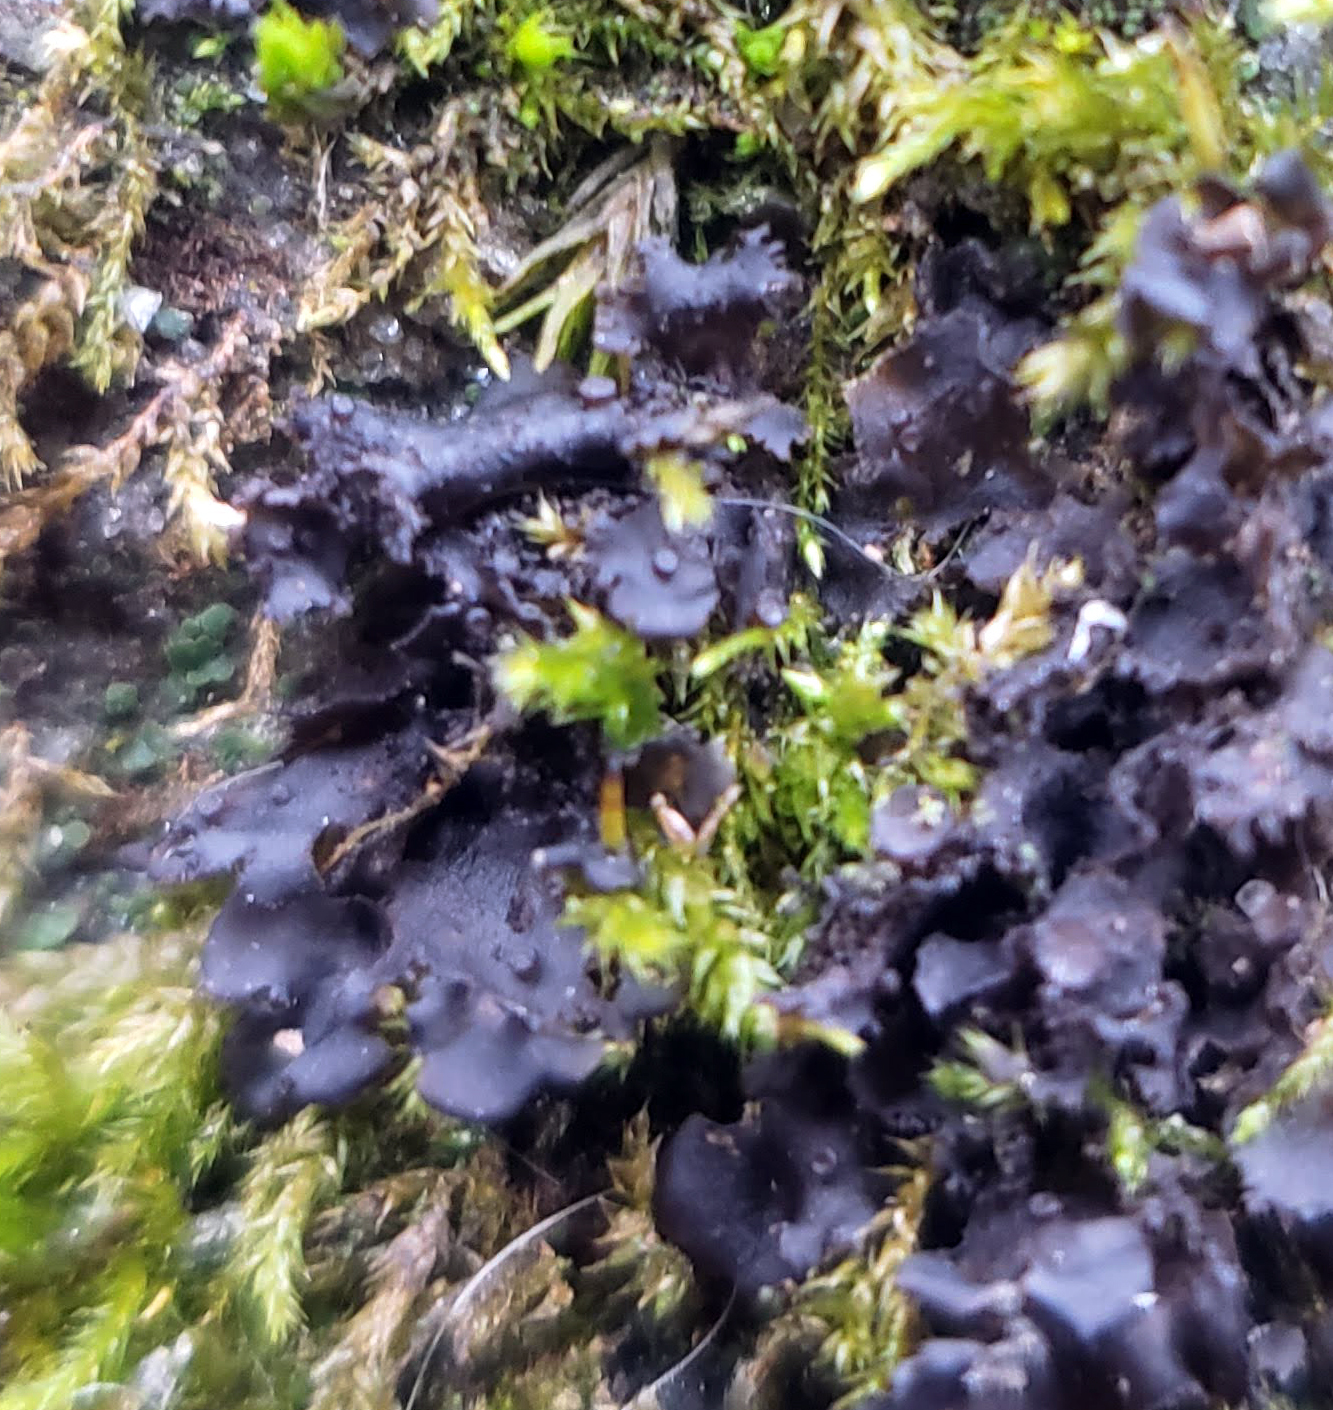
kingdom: Fungi
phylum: Ascomycota
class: Lecanoromycetes
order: Peltigerales
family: Collemataceae
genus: Leptogium
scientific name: Leptogium cyanescens
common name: Blue jellyskin
